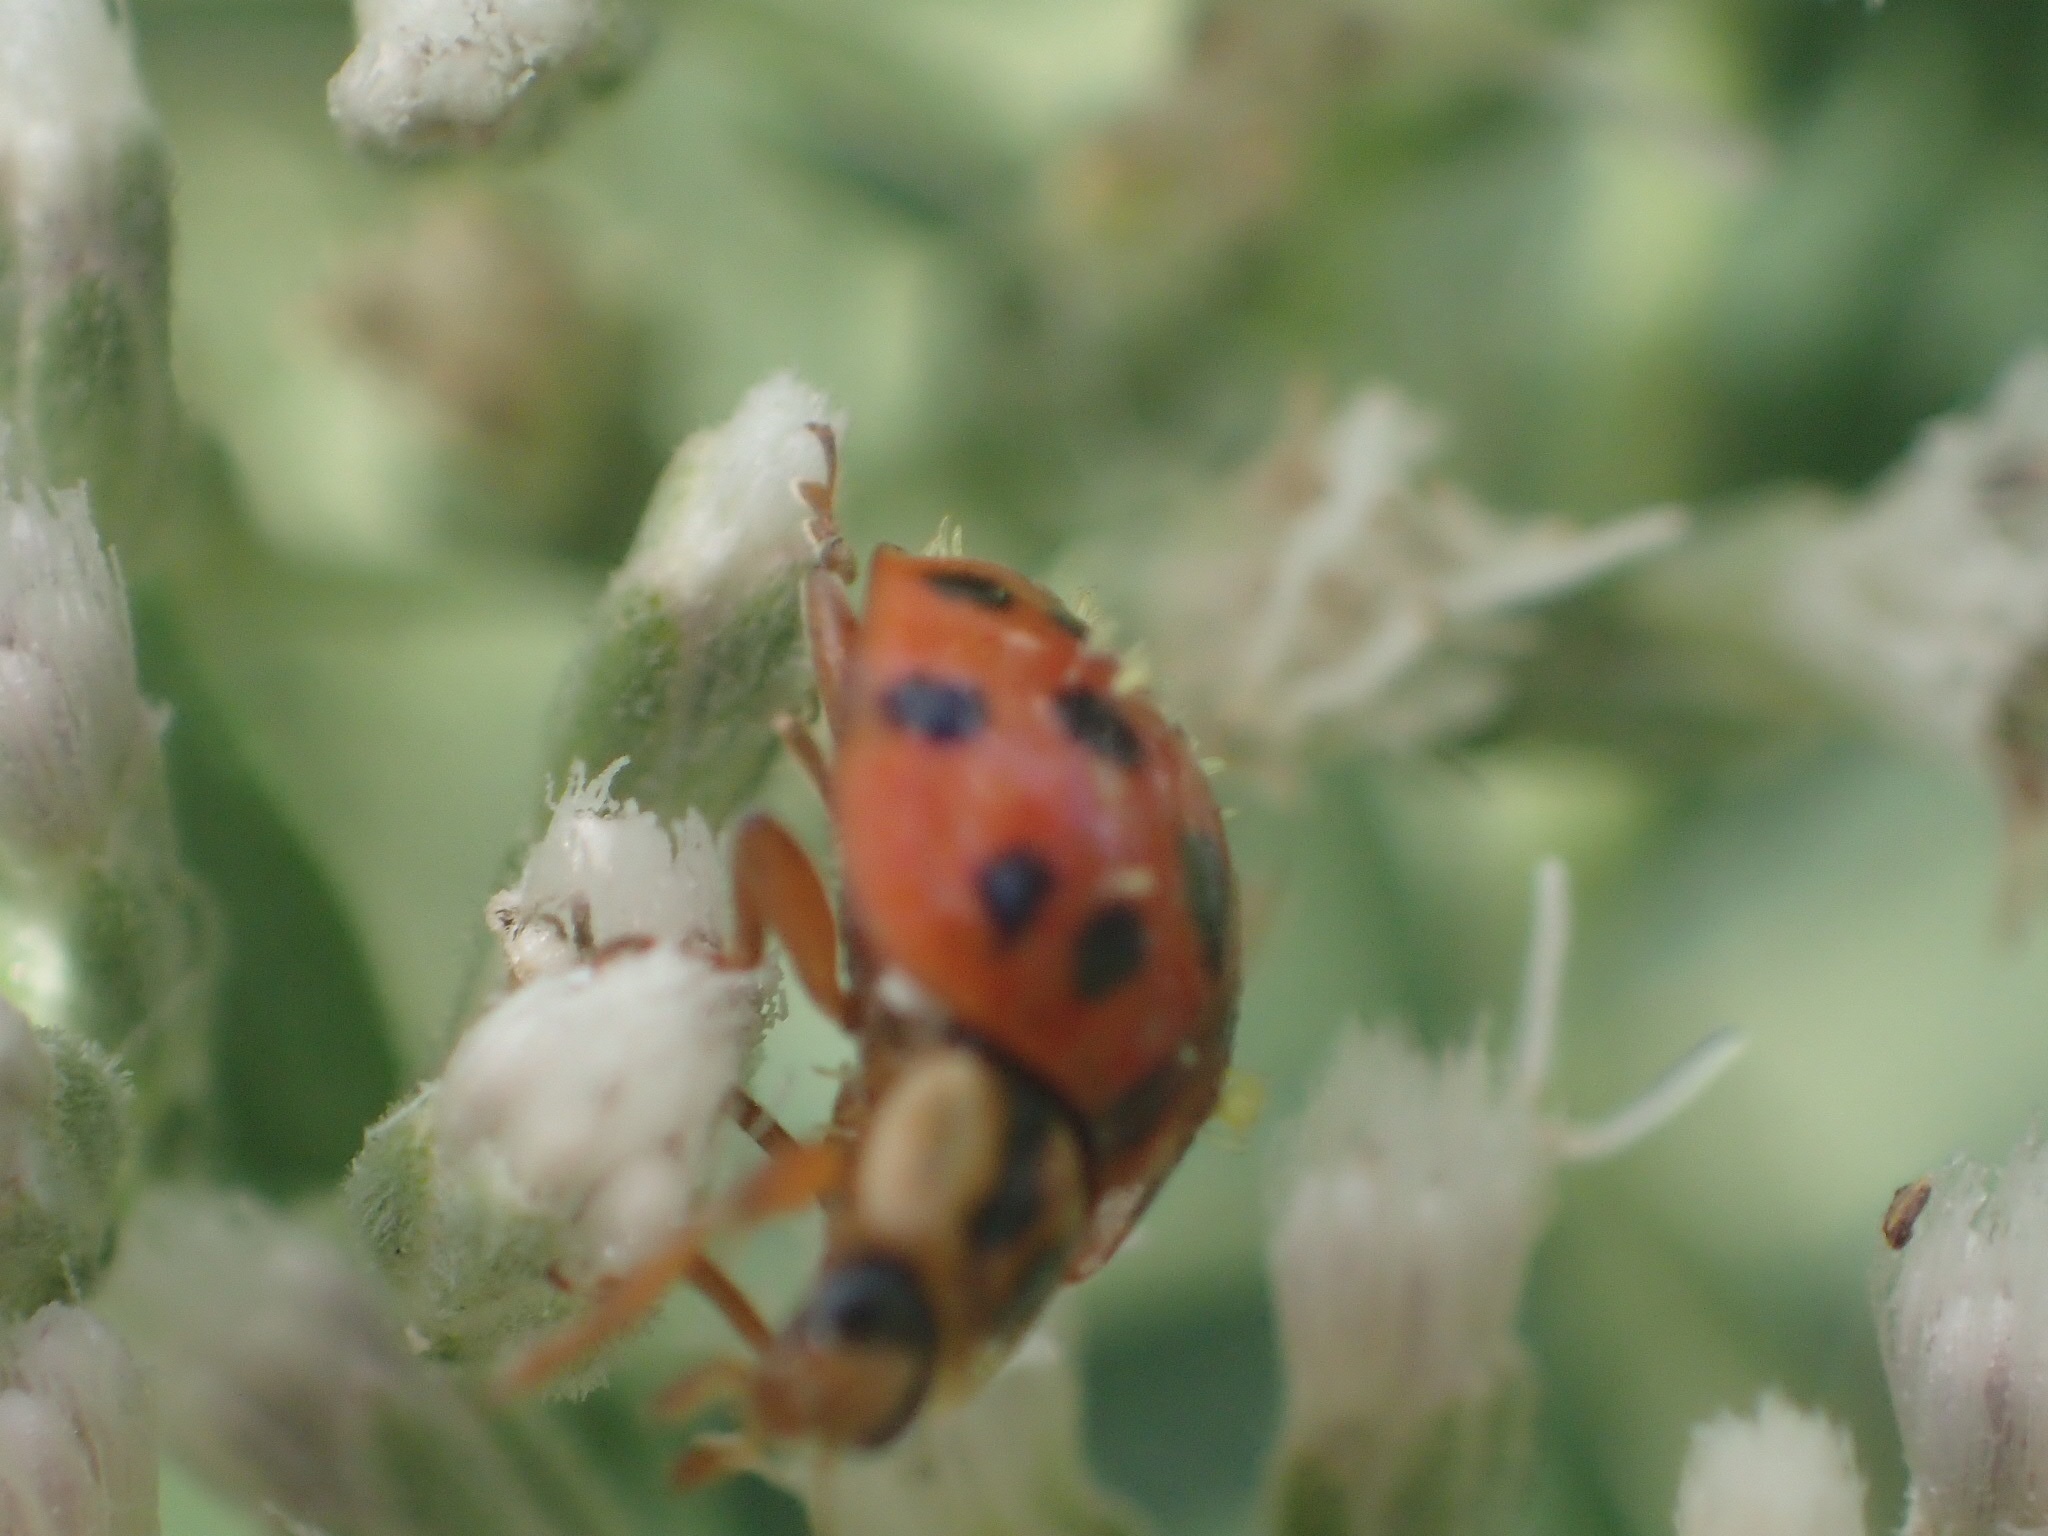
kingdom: Animalia
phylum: Arthropoda
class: Insecta
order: Coleoptera
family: Coccinellidae
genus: Harmonia
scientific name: Harmonia axyridis
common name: Harlequin ladybird
